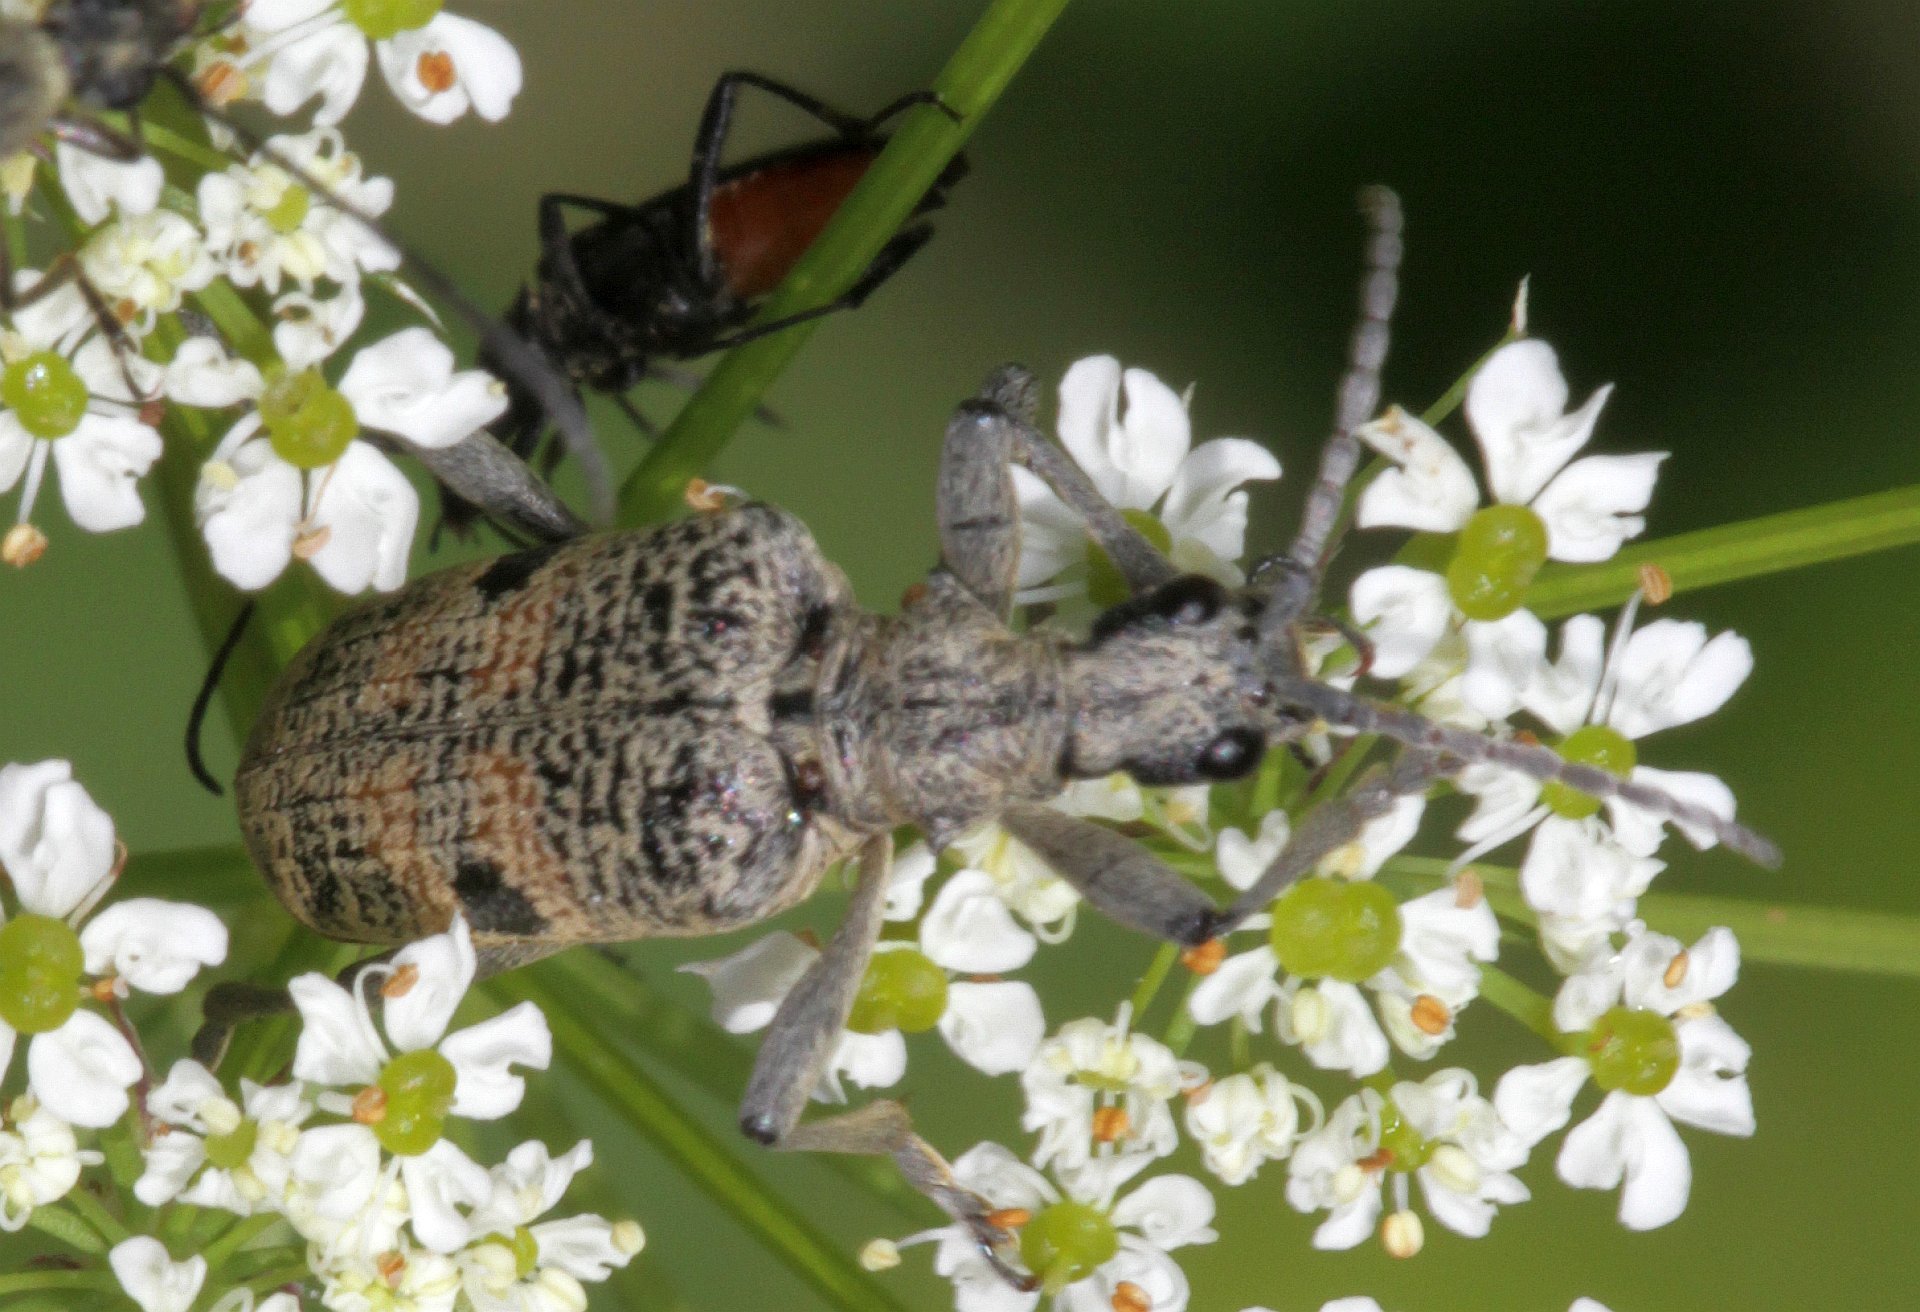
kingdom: Animalia
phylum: Arthropoda
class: Insecta
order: Coleoptera
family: Cerambycidae
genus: Rhagium
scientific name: Rhagium mordax
